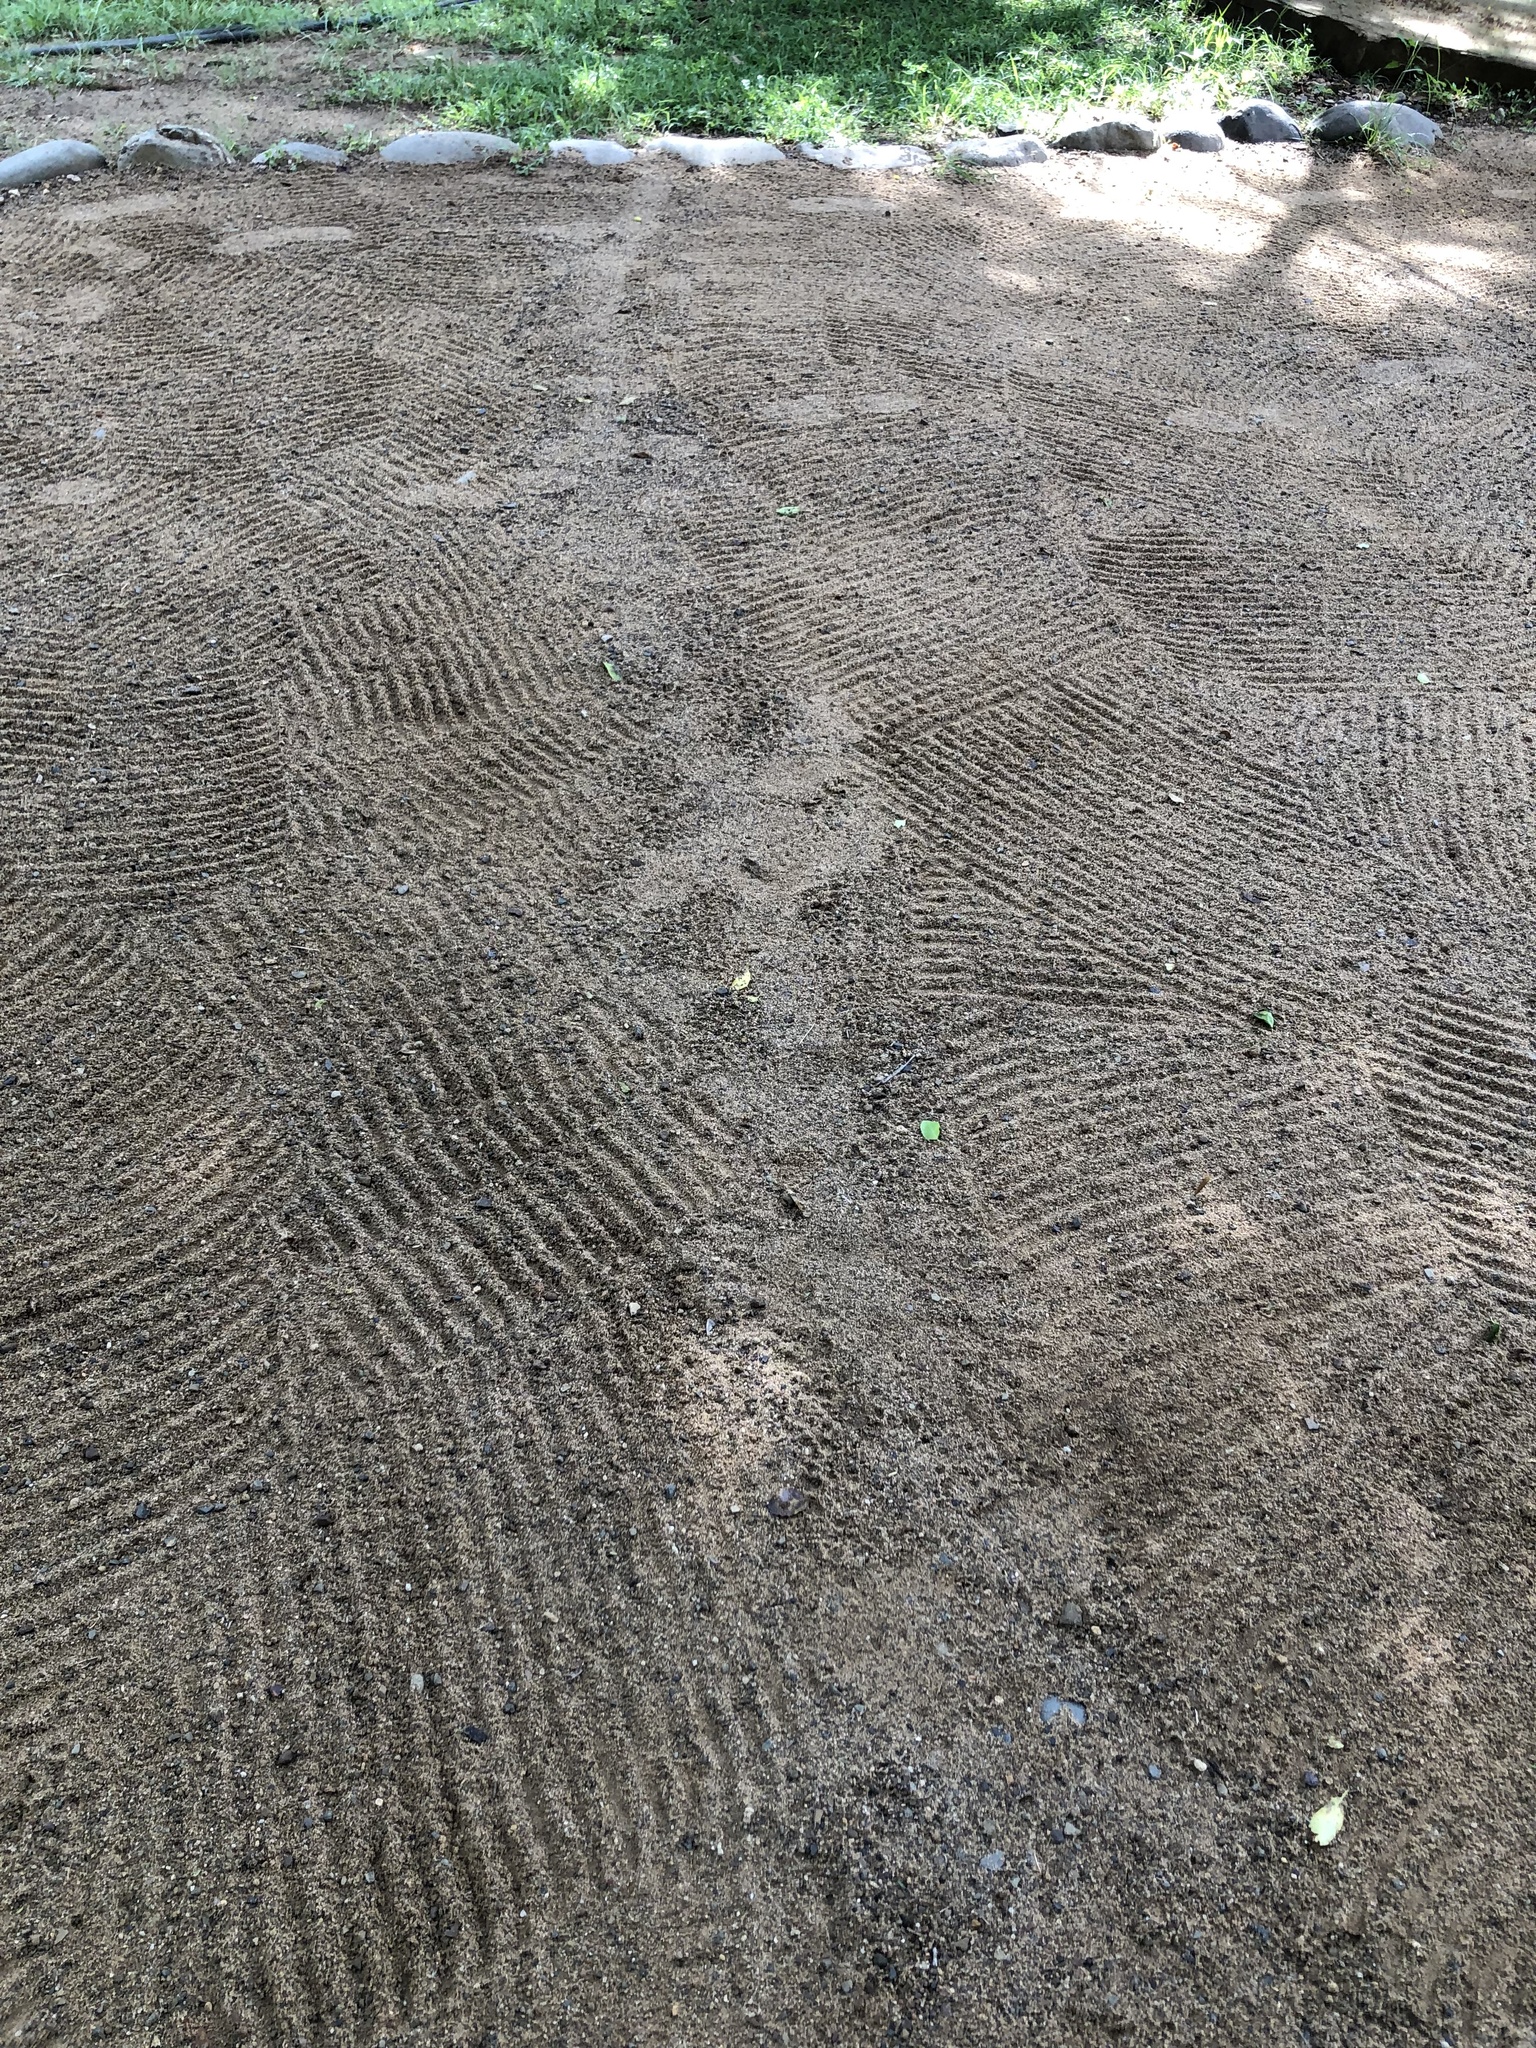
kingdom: Animalia
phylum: Chordata
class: Squamata
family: Pythonidae
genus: Python
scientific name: Python natalensis
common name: Southern african rock python
